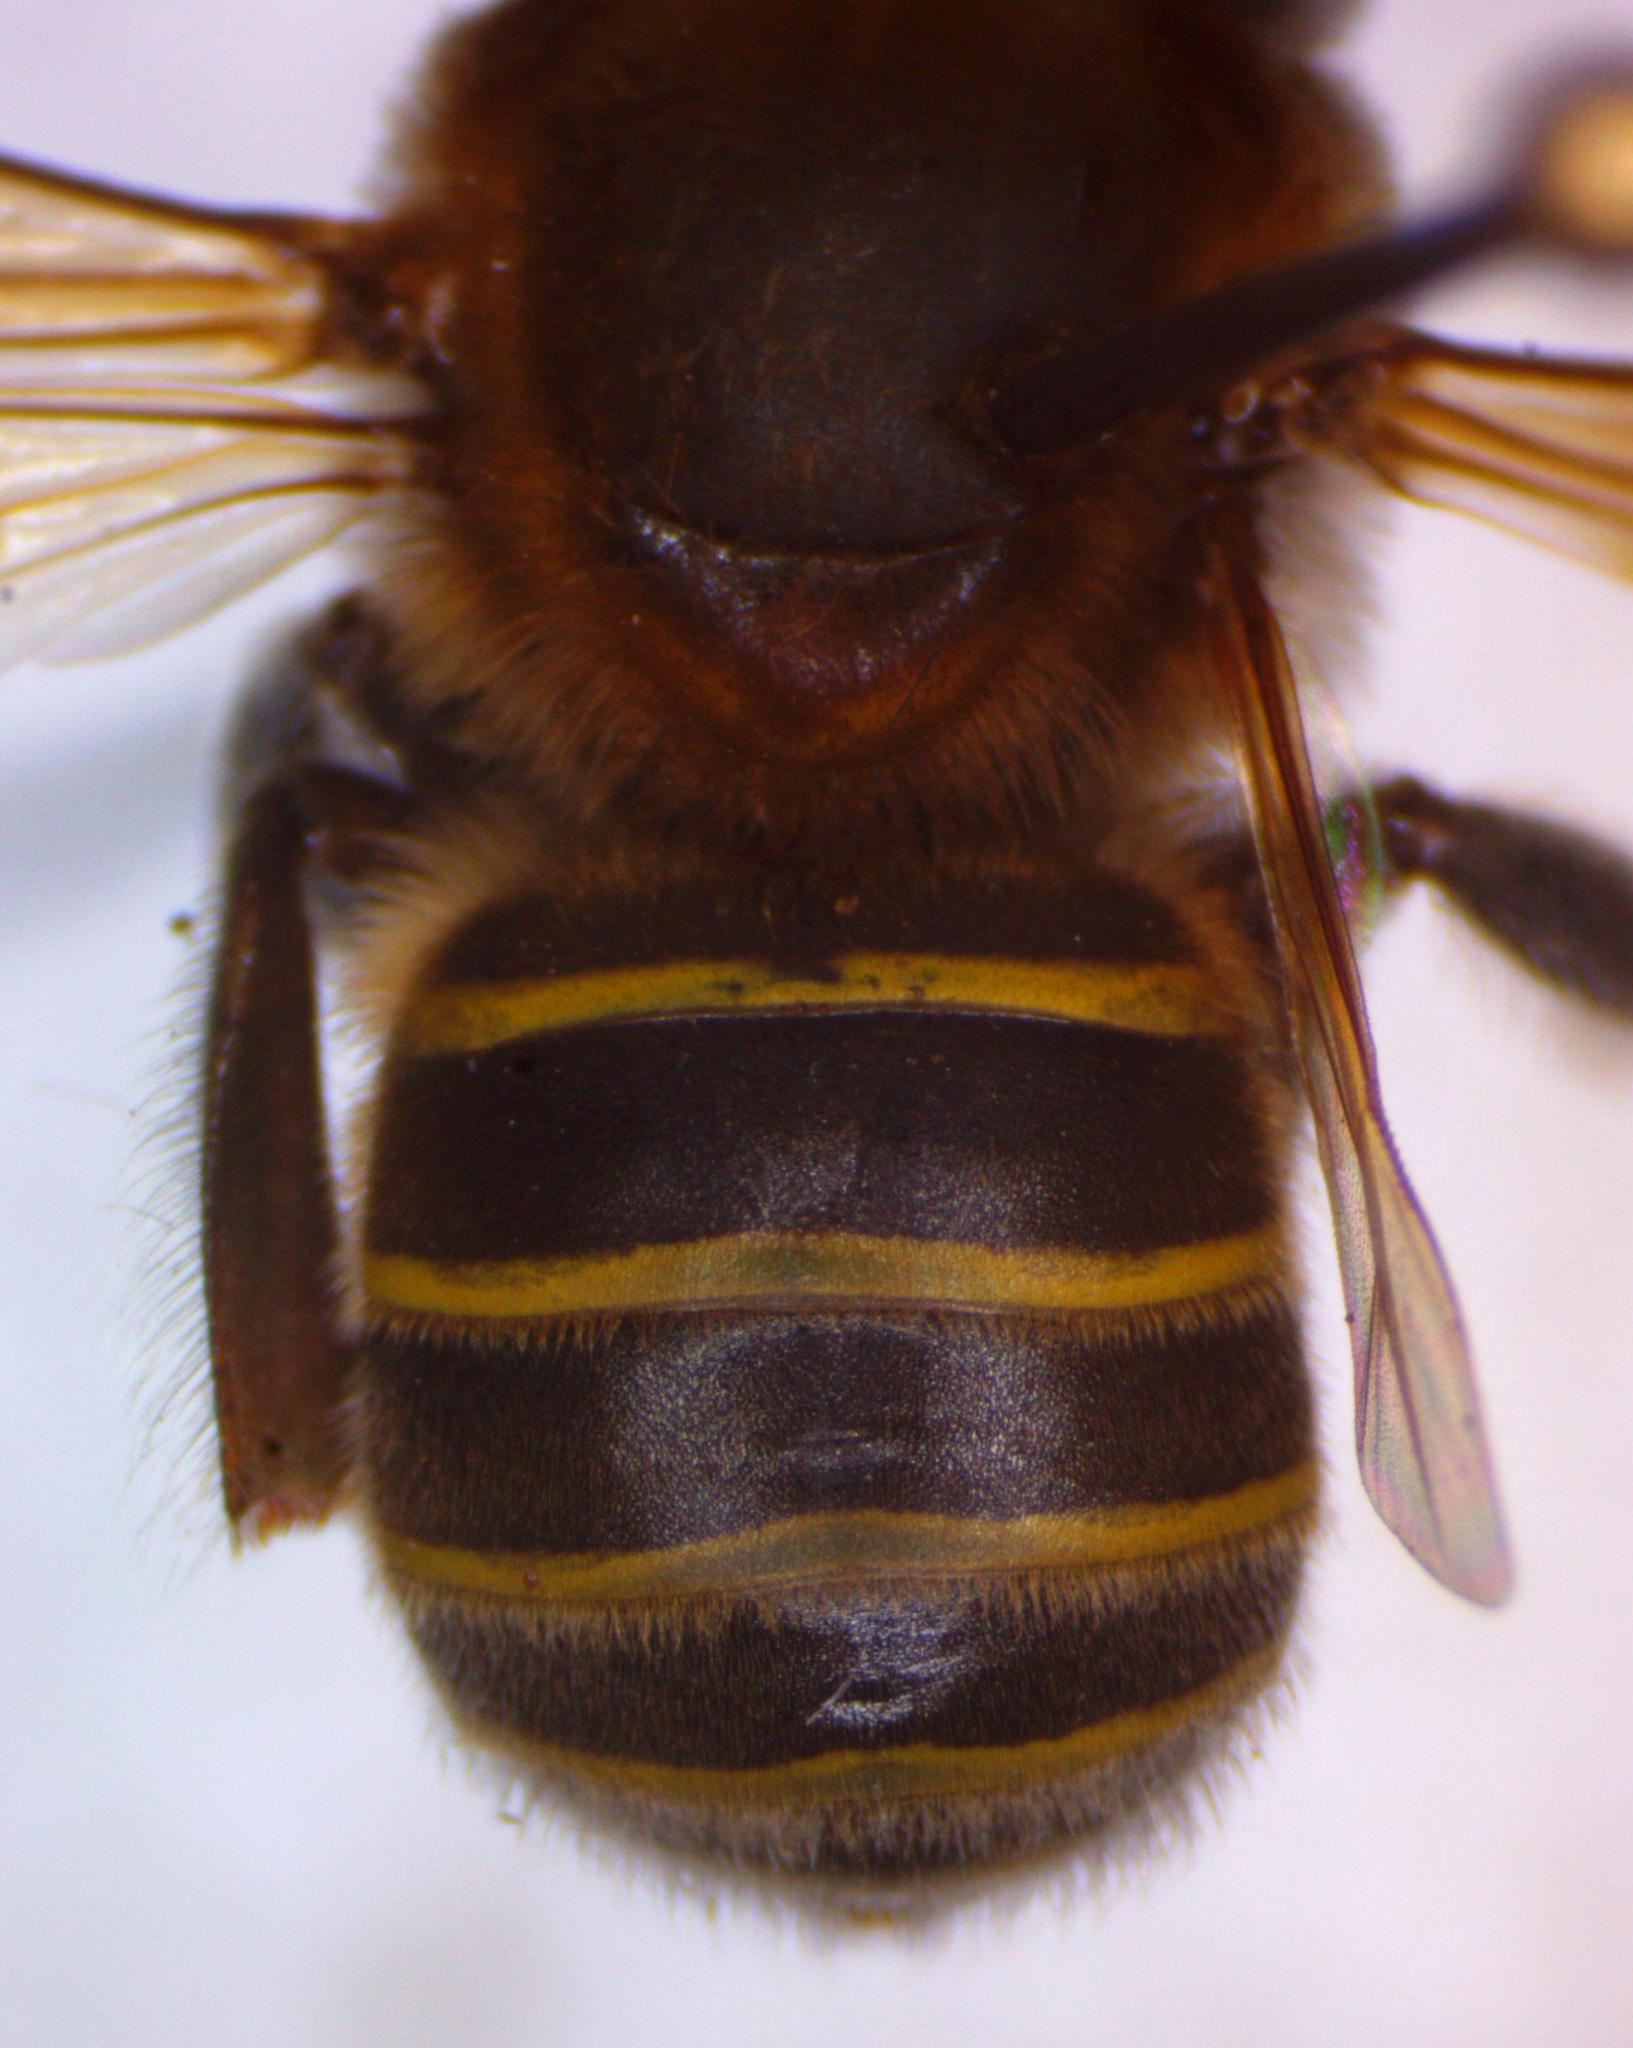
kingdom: Animalia
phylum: Arthropoda
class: Insecta
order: Hymenoptera
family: Apidae
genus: Melipona
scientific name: Melipona beecheii
